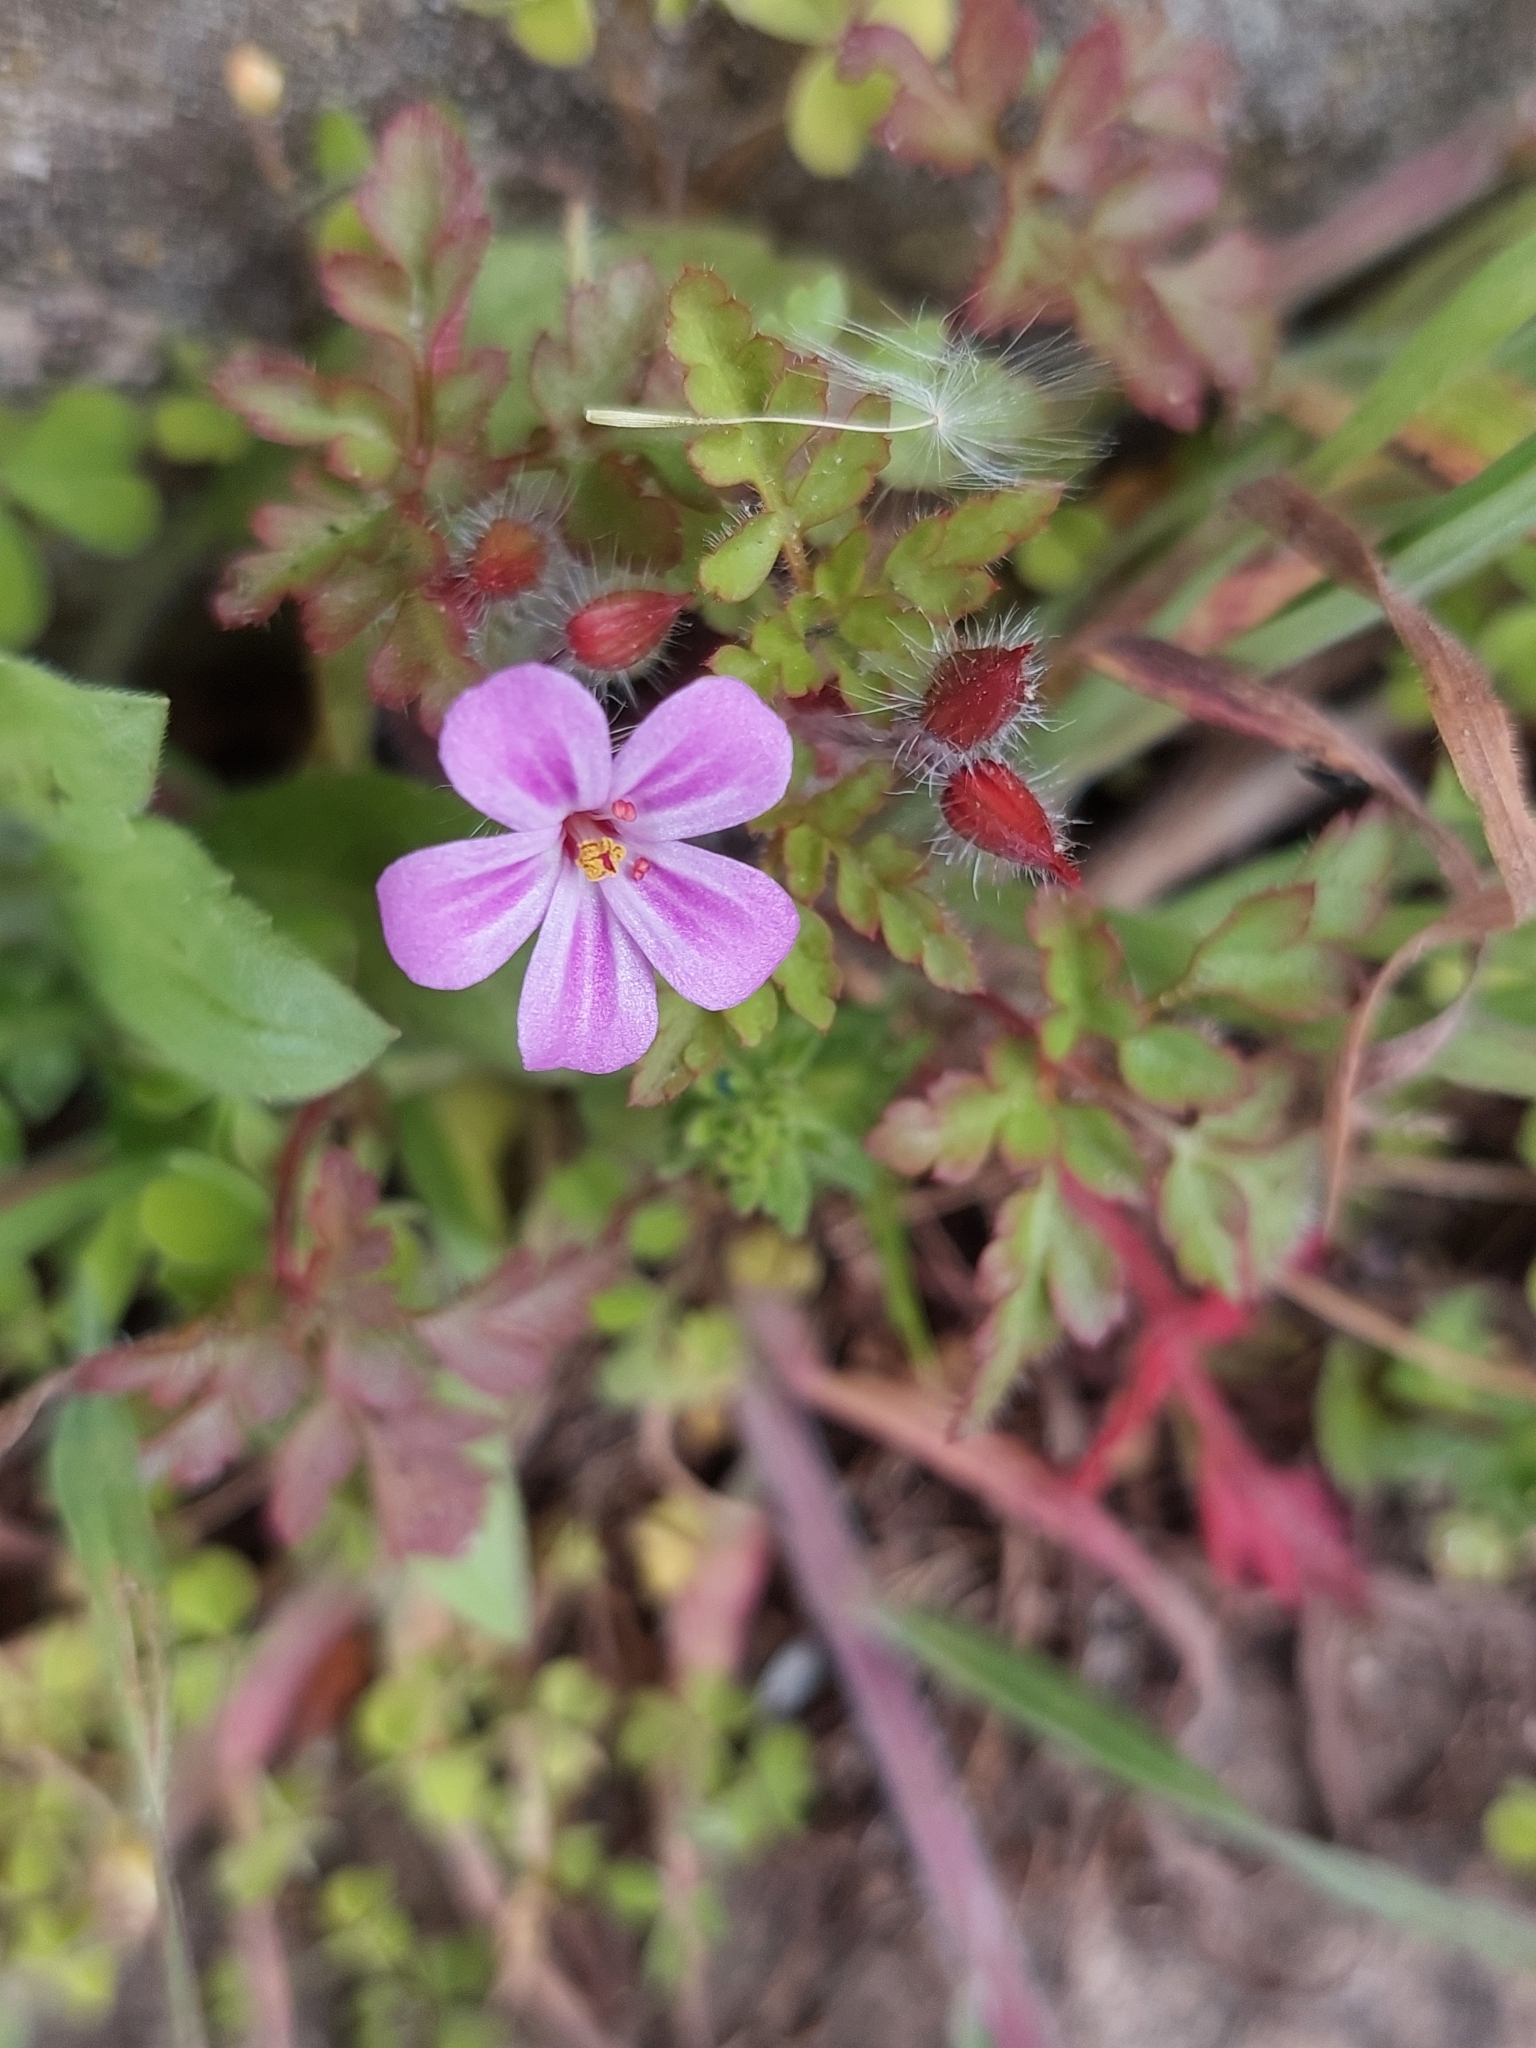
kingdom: Plantae
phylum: Tracheophyta
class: Magnoliopsida
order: Geraniales
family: Geraniaceae
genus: Geranium
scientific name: Geranium robertianum
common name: Herb-robert
